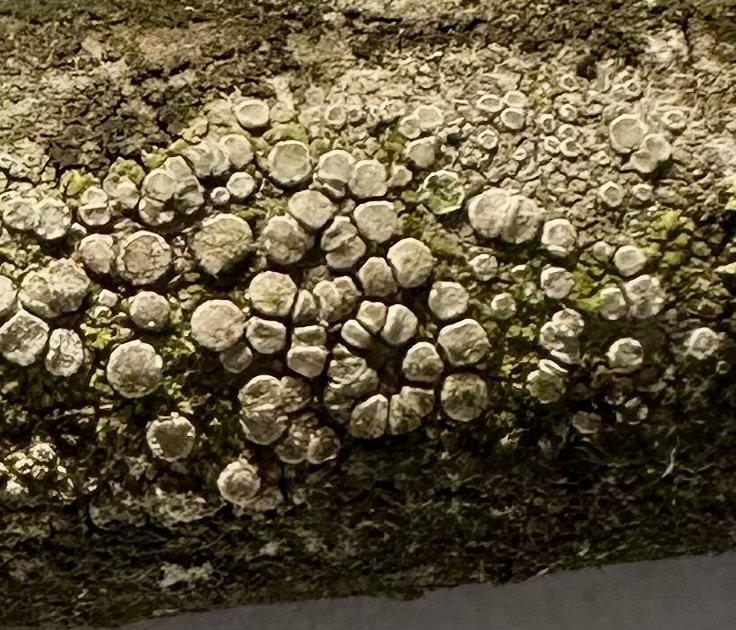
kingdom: Fungi
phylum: Ascomycota
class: Lecanoromycetes
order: Lecanorales
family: Lecanoraceae
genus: Glaucomaria
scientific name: Glaucomaria carpinea
